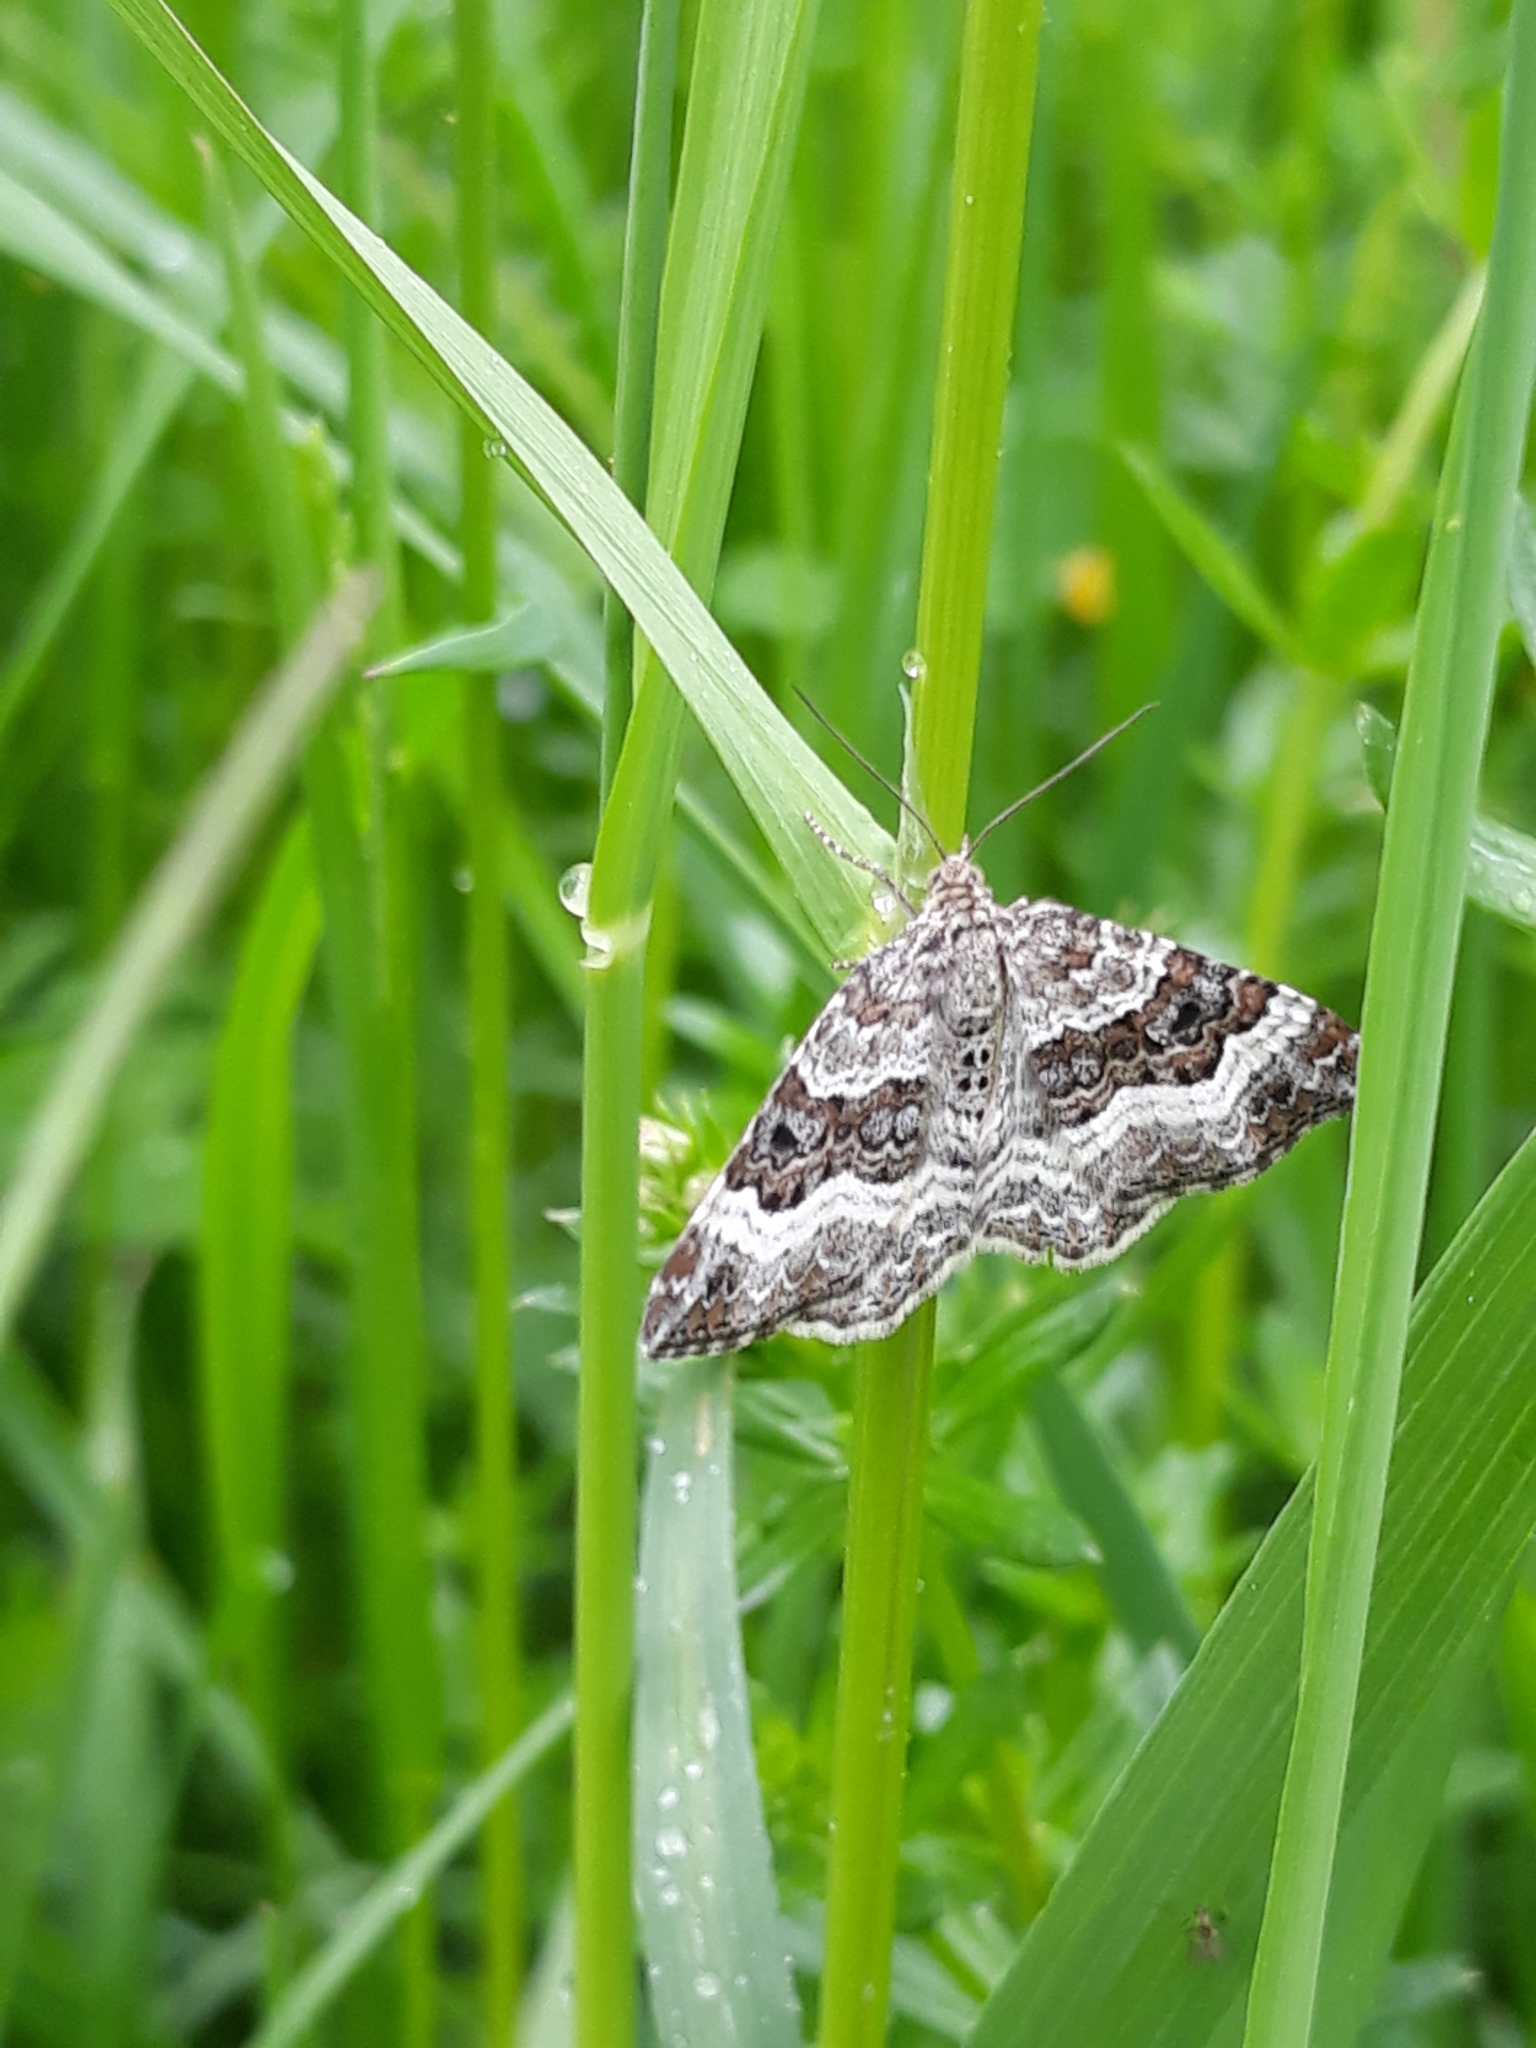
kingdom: Animalia
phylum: Arthropoda
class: Insecta
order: Lepidoptera
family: Geometridae
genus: Epirrhoe
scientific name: Epirrhoe alternata
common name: Common carpet
